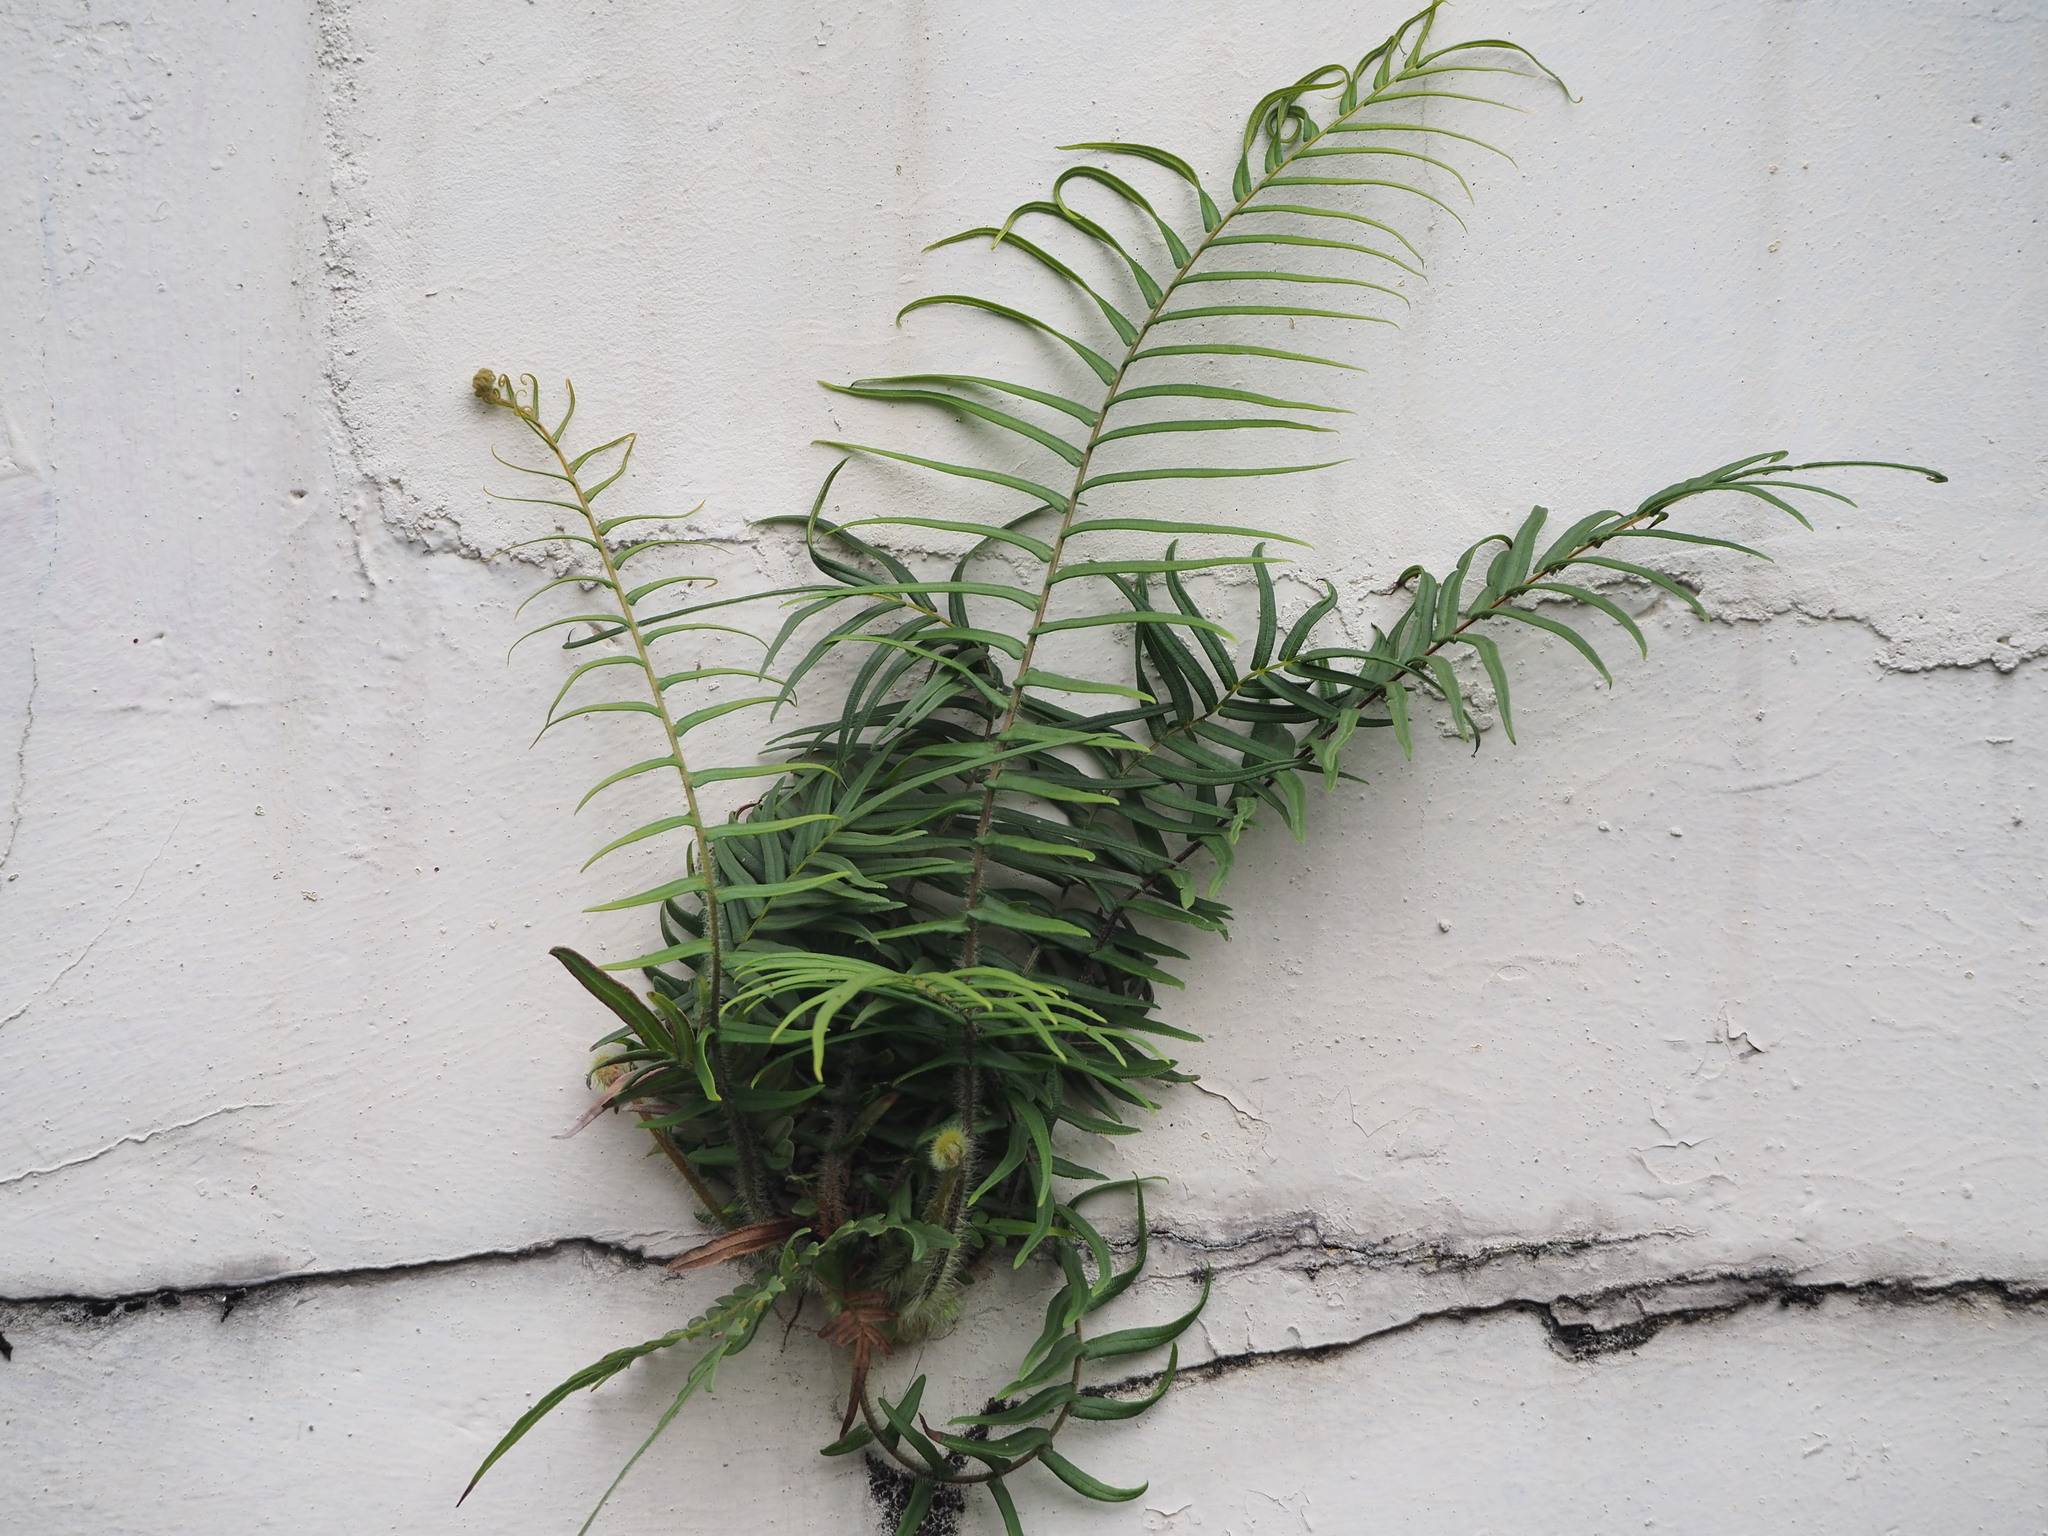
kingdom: Plantae
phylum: Tracheophyta
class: Polypodiopsida
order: Polypodiales
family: Pteridaceae
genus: Pteris
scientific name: Pteris vittata
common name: Ladder brake
